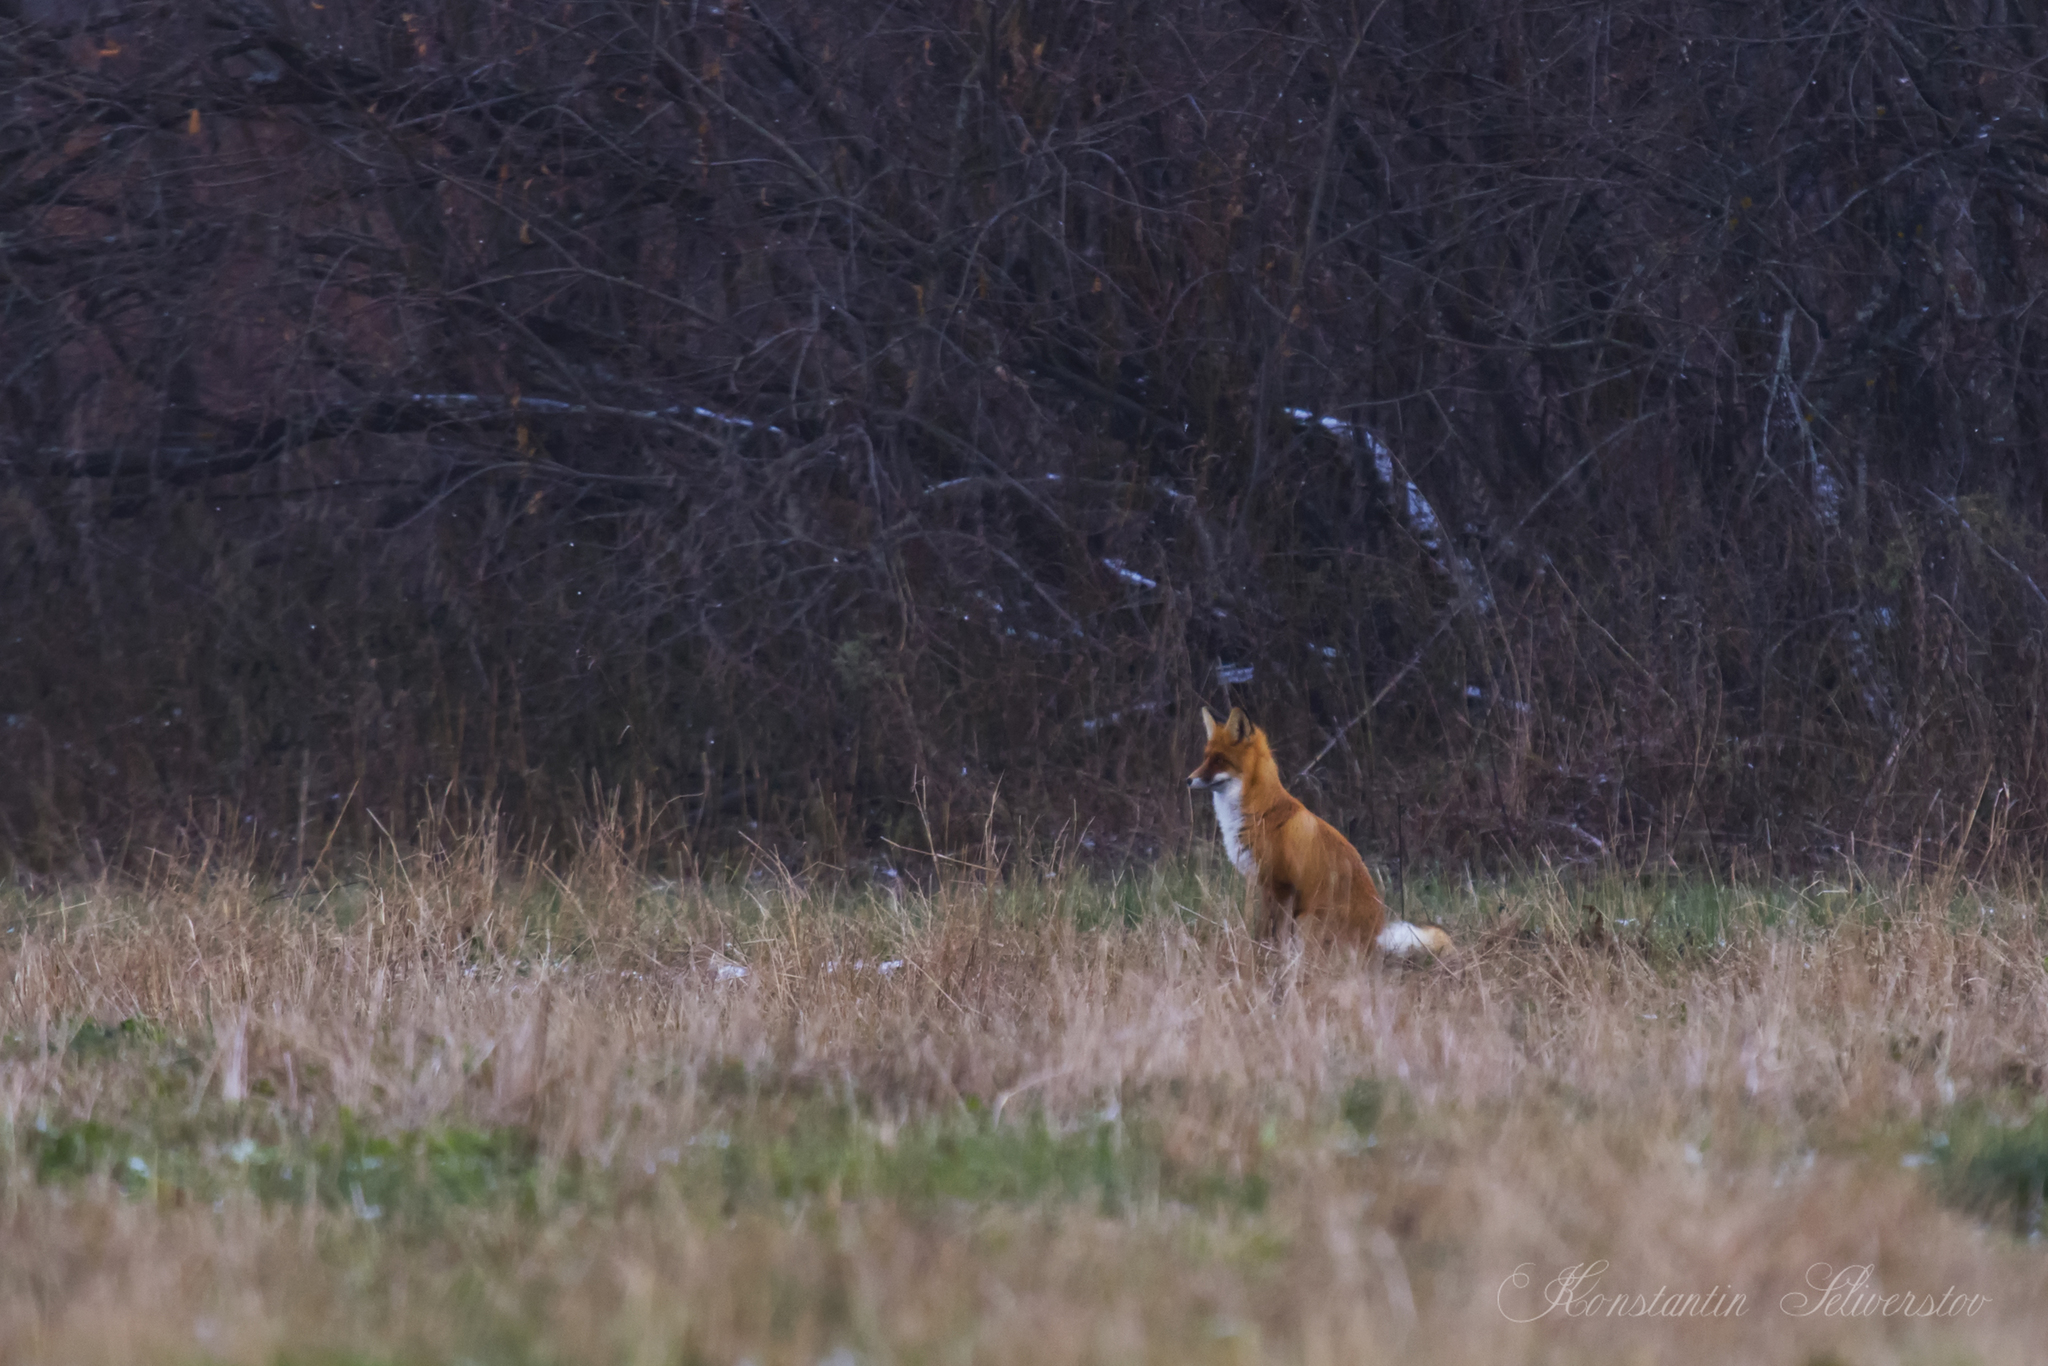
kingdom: Animalia
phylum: Chordata
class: Mammalia
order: Carnivora
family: Canidae
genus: Vulpes
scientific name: Vulpes vulpes
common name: Red fox
